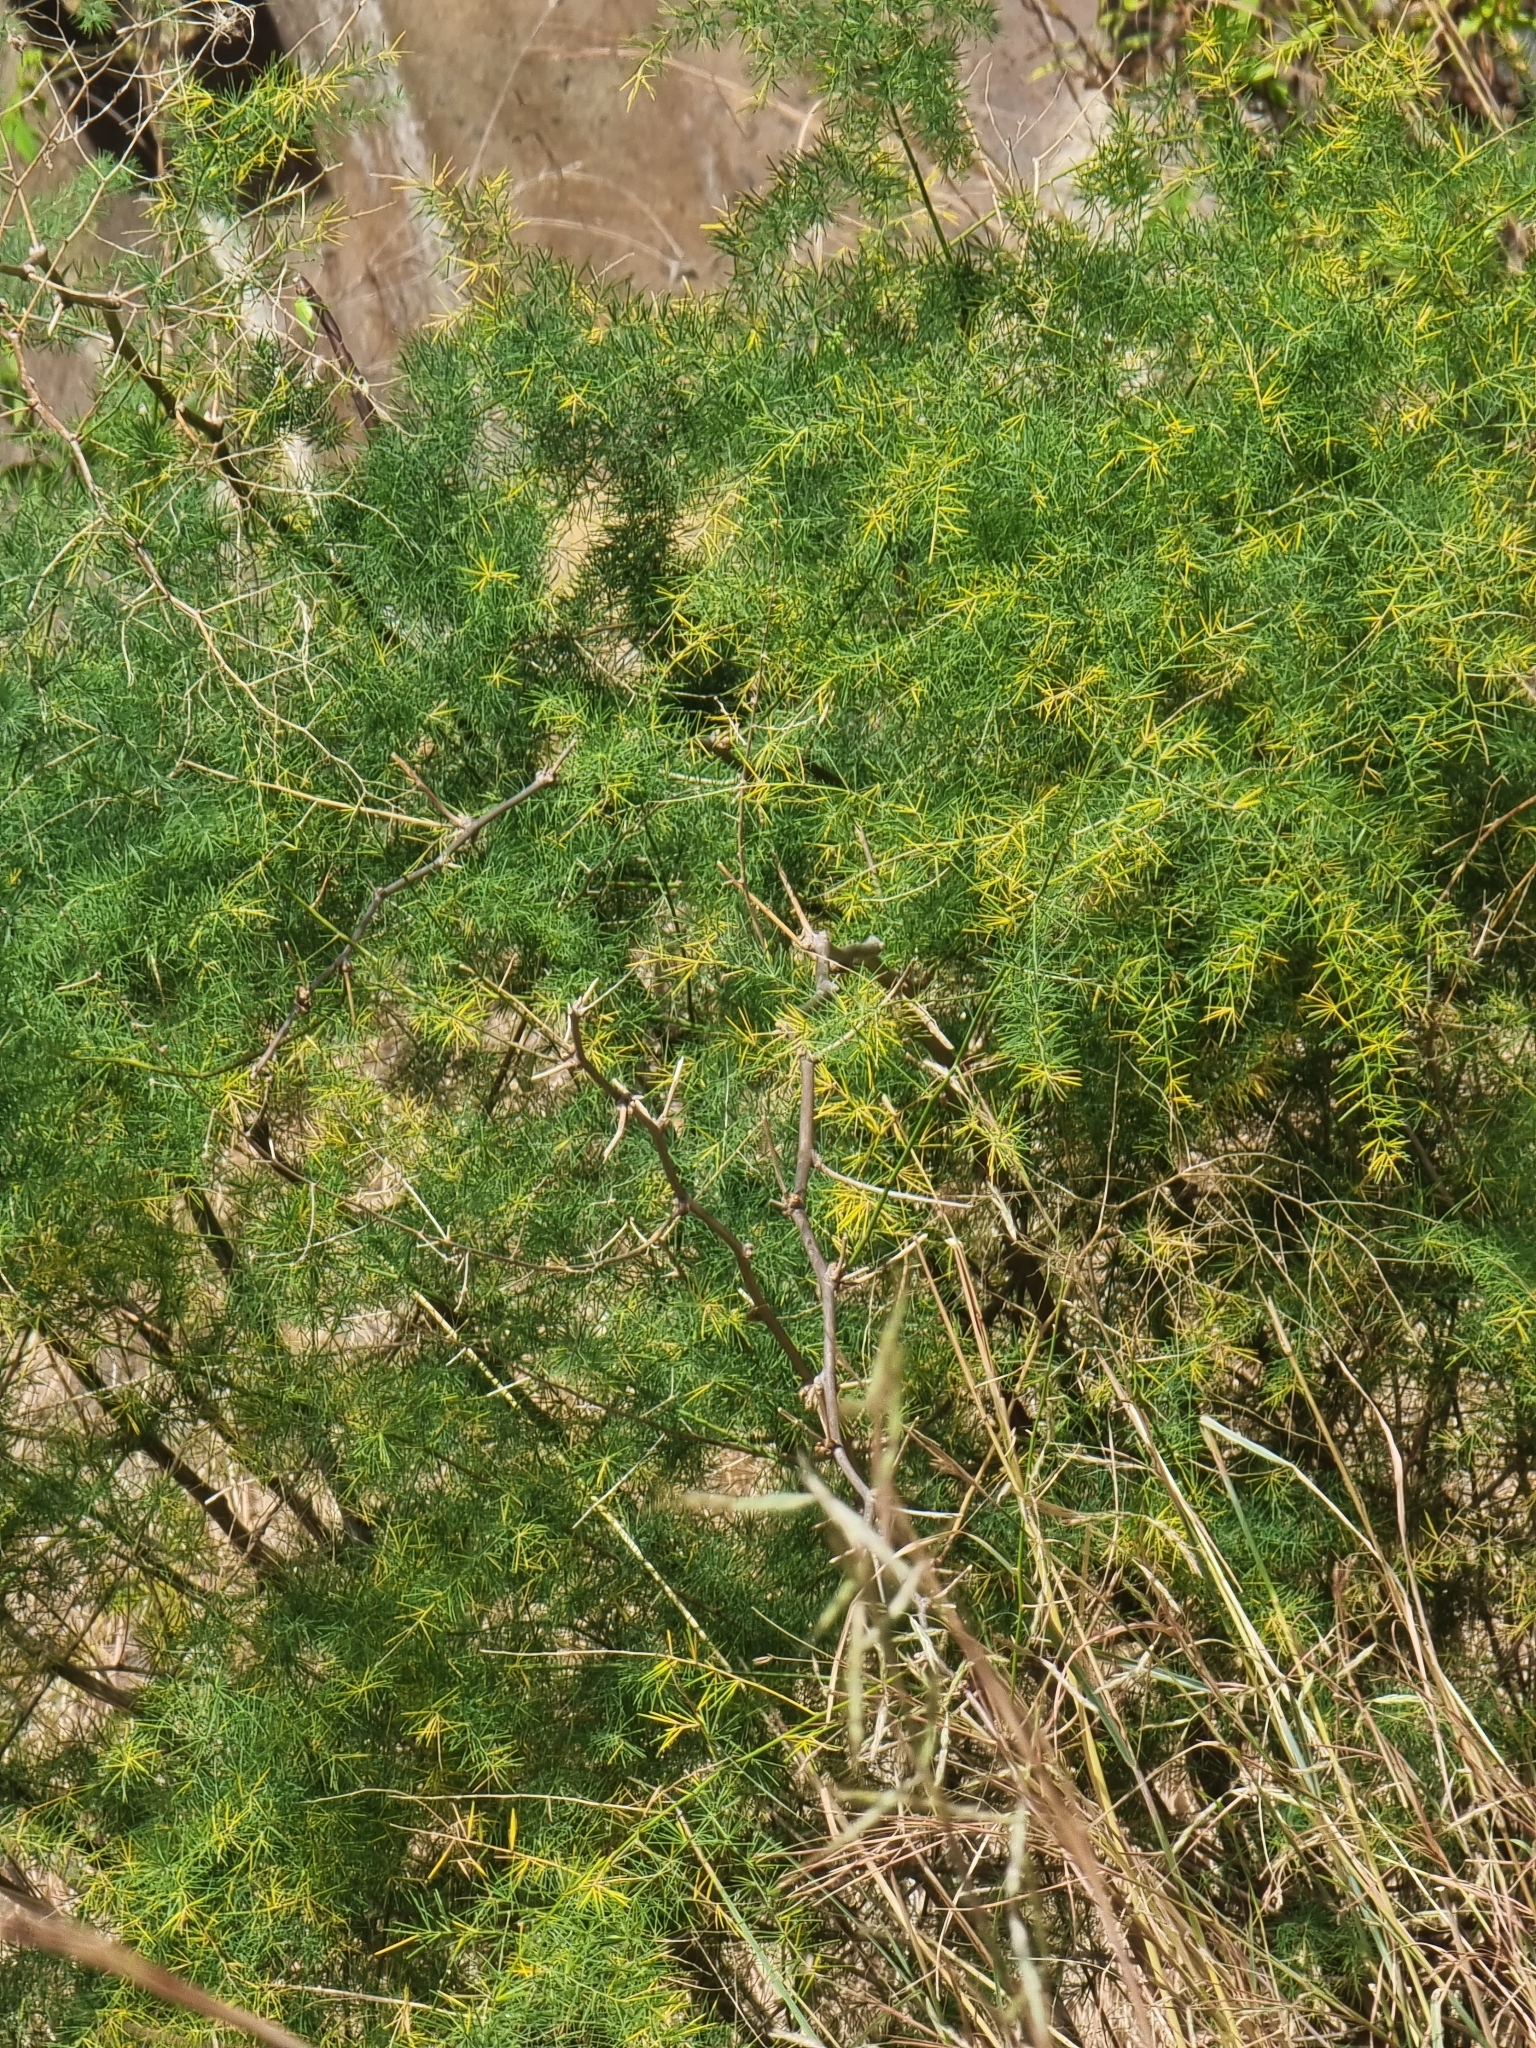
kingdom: Plantae
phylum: Tracheophyta
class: Liliopsida
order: Asparagales
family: Asparagaceae
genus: Asparagus
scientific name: Asparagus umbellatus
